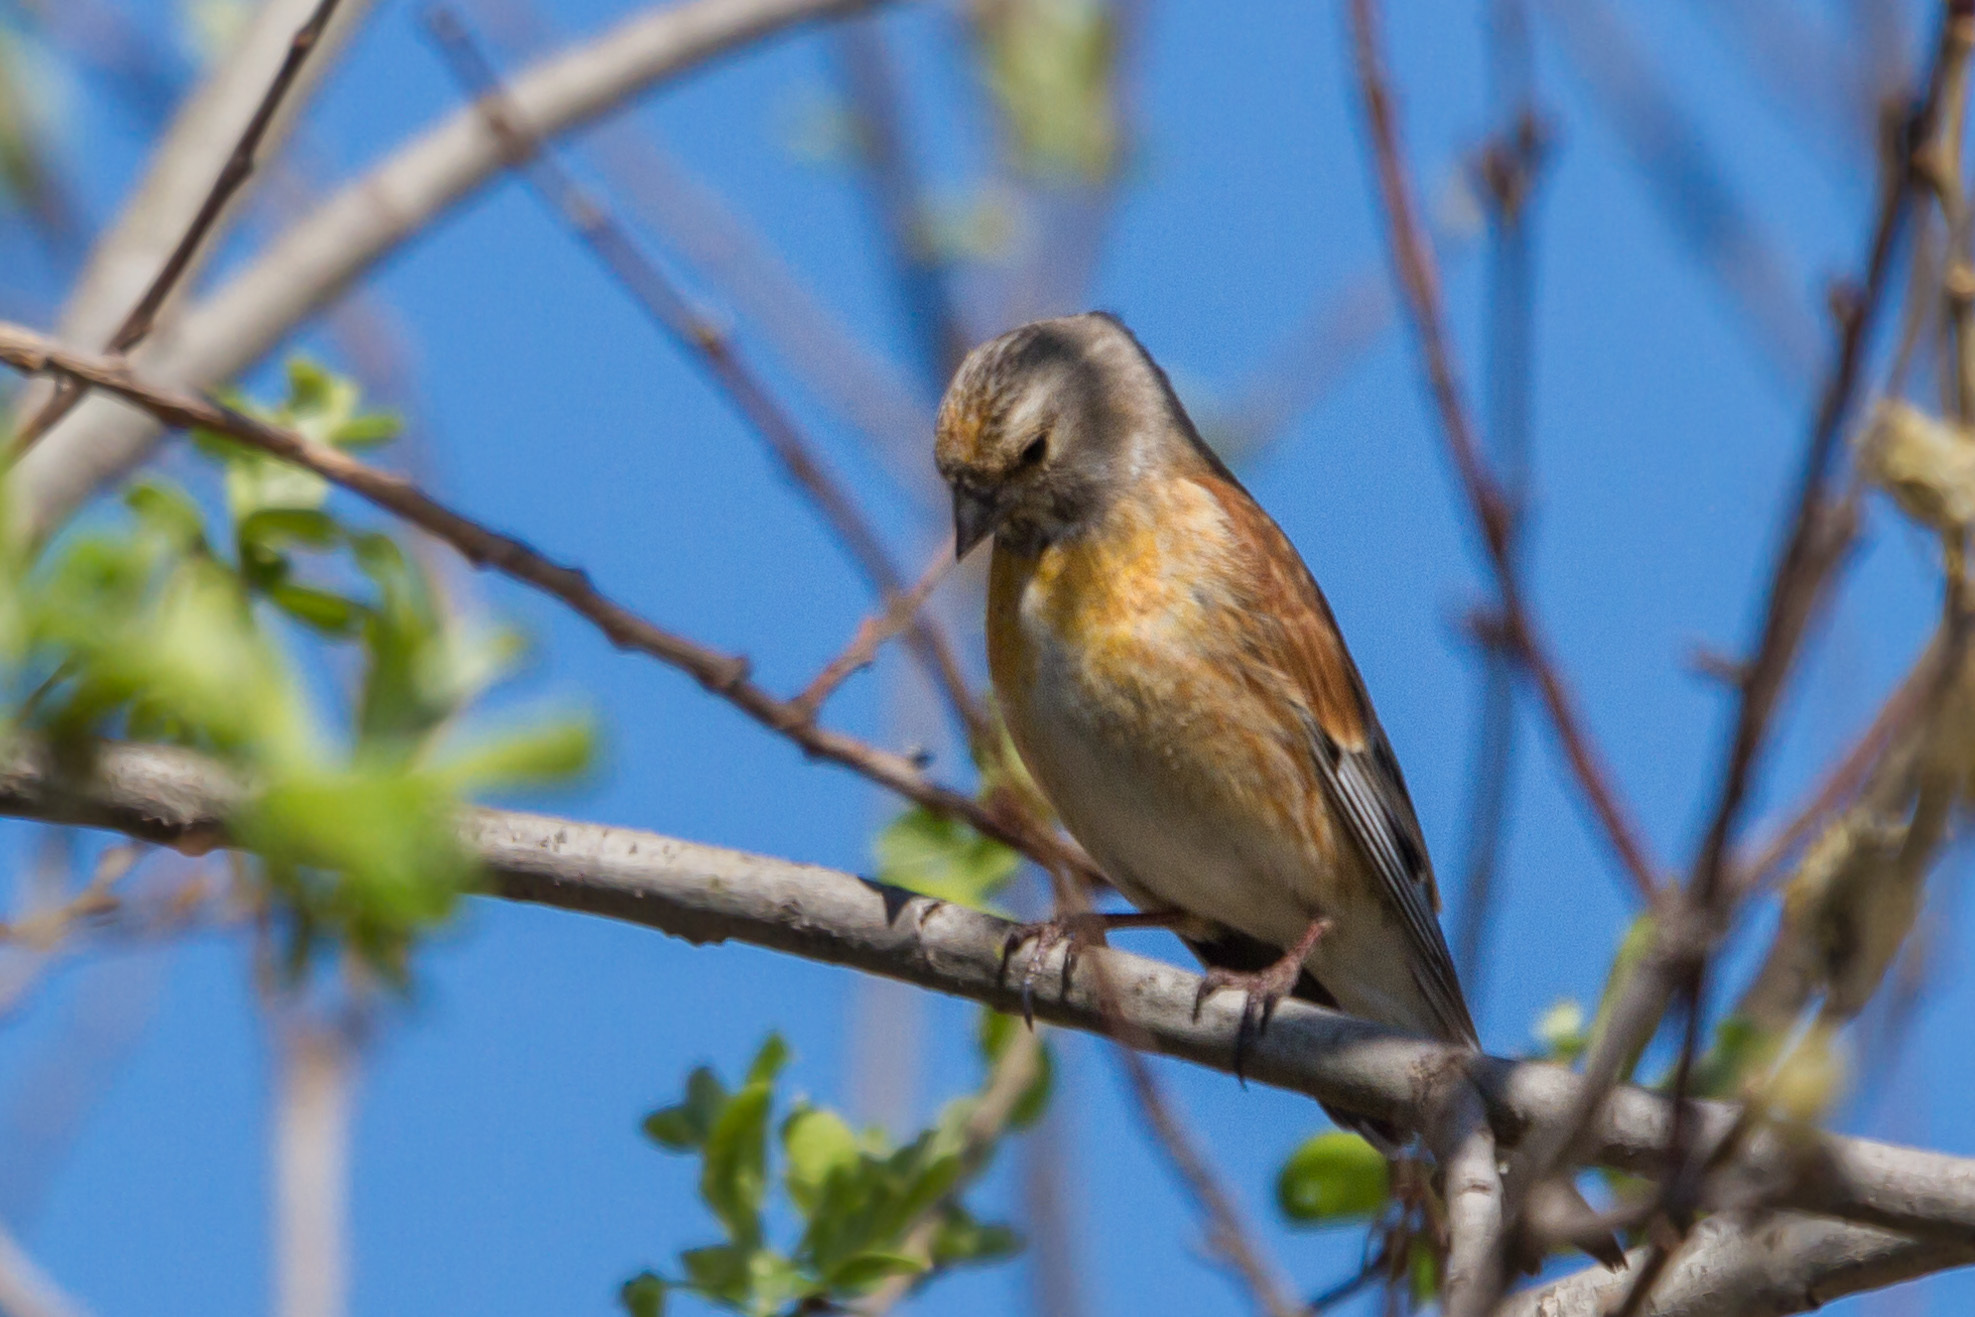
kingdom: Animalia
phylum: Chordata
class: Aves
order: Passeriformes
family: Fringillidae
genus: Linaria
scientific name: Linaria cannabina
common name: Common linnet
